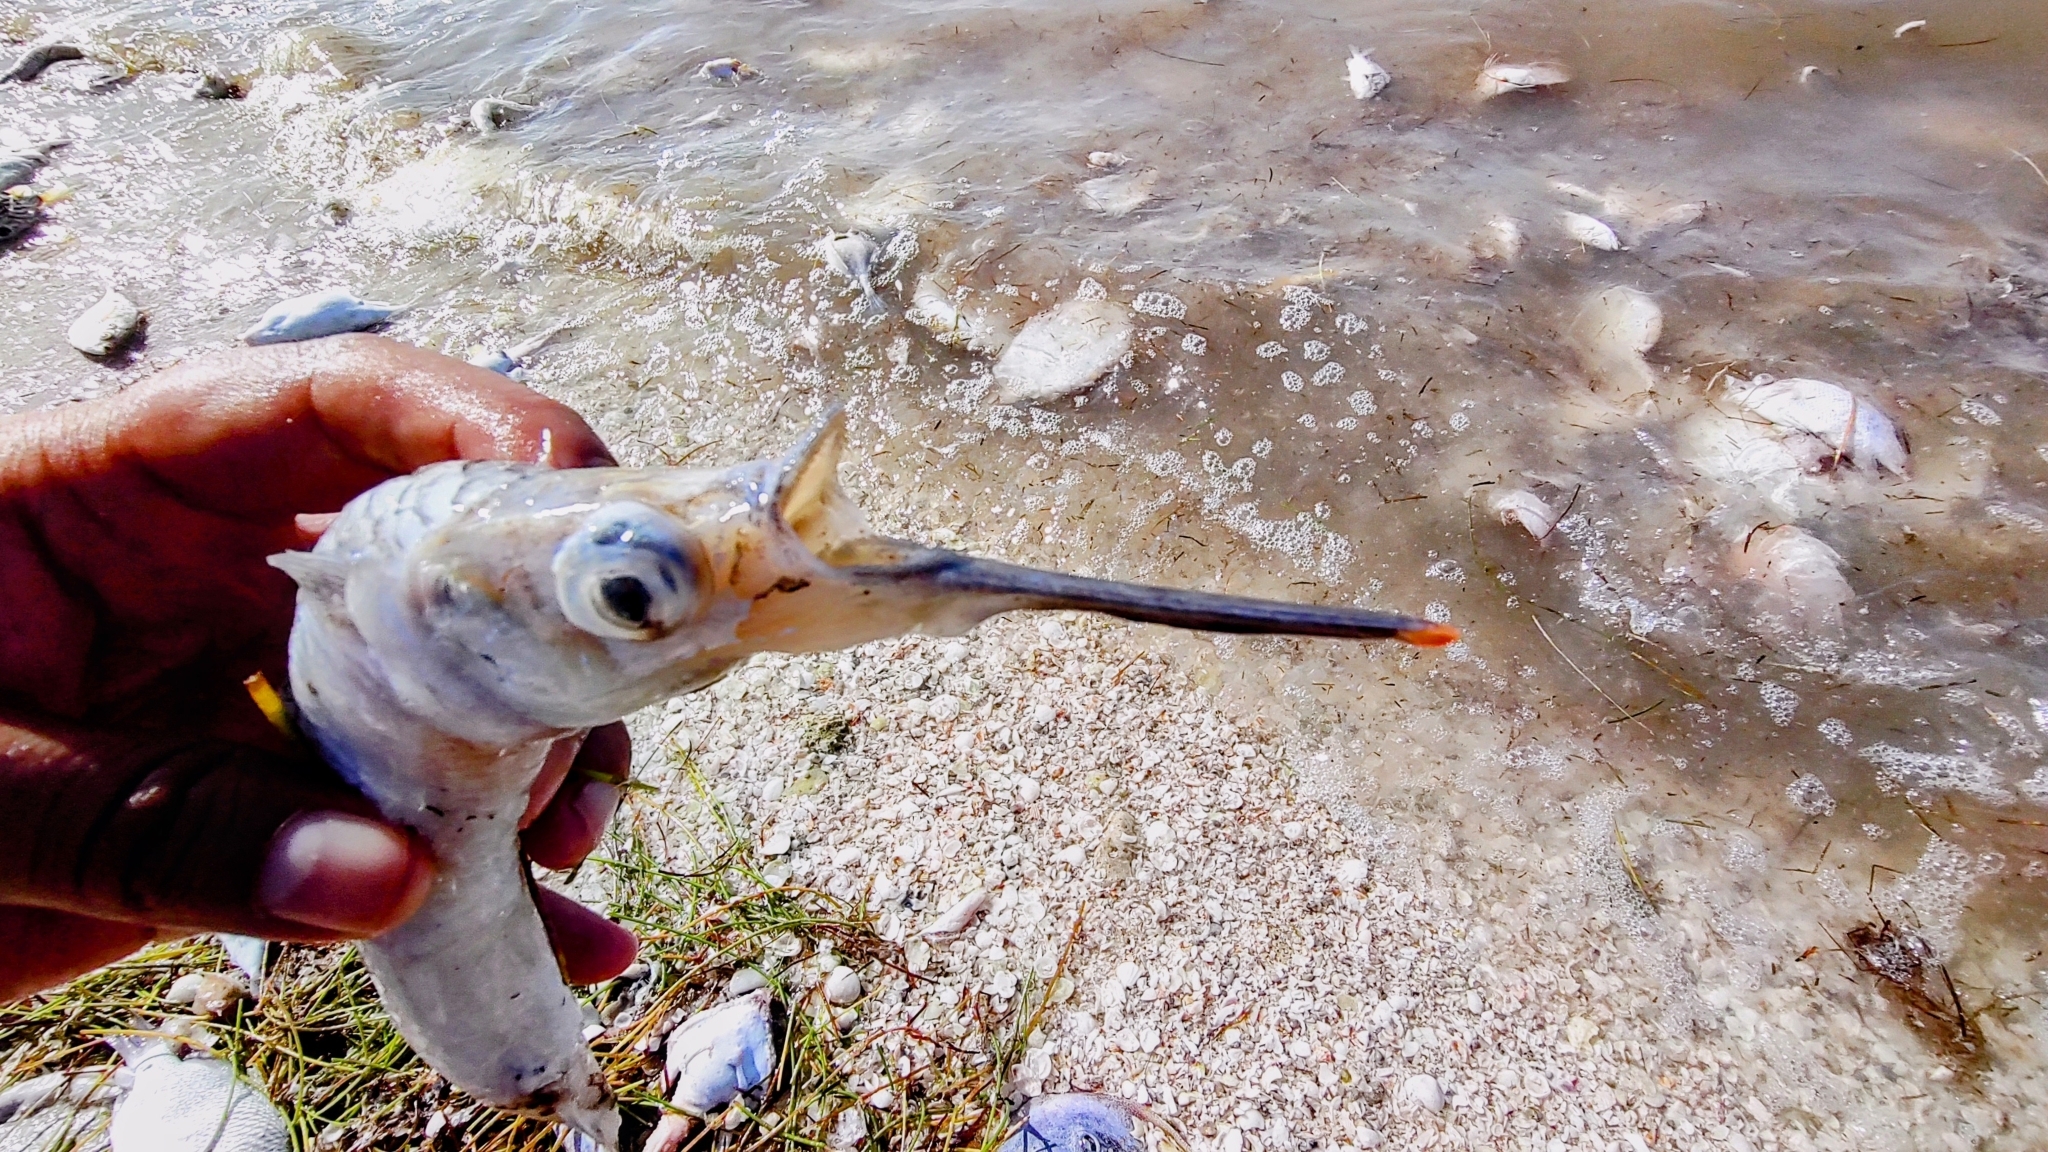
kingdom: Animalia
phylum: Chordata
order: Beloniformes
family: Hemiramphidae
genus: Hemiramphus
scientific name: Hemiramphus brasiliensis
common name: Ballyhoo
